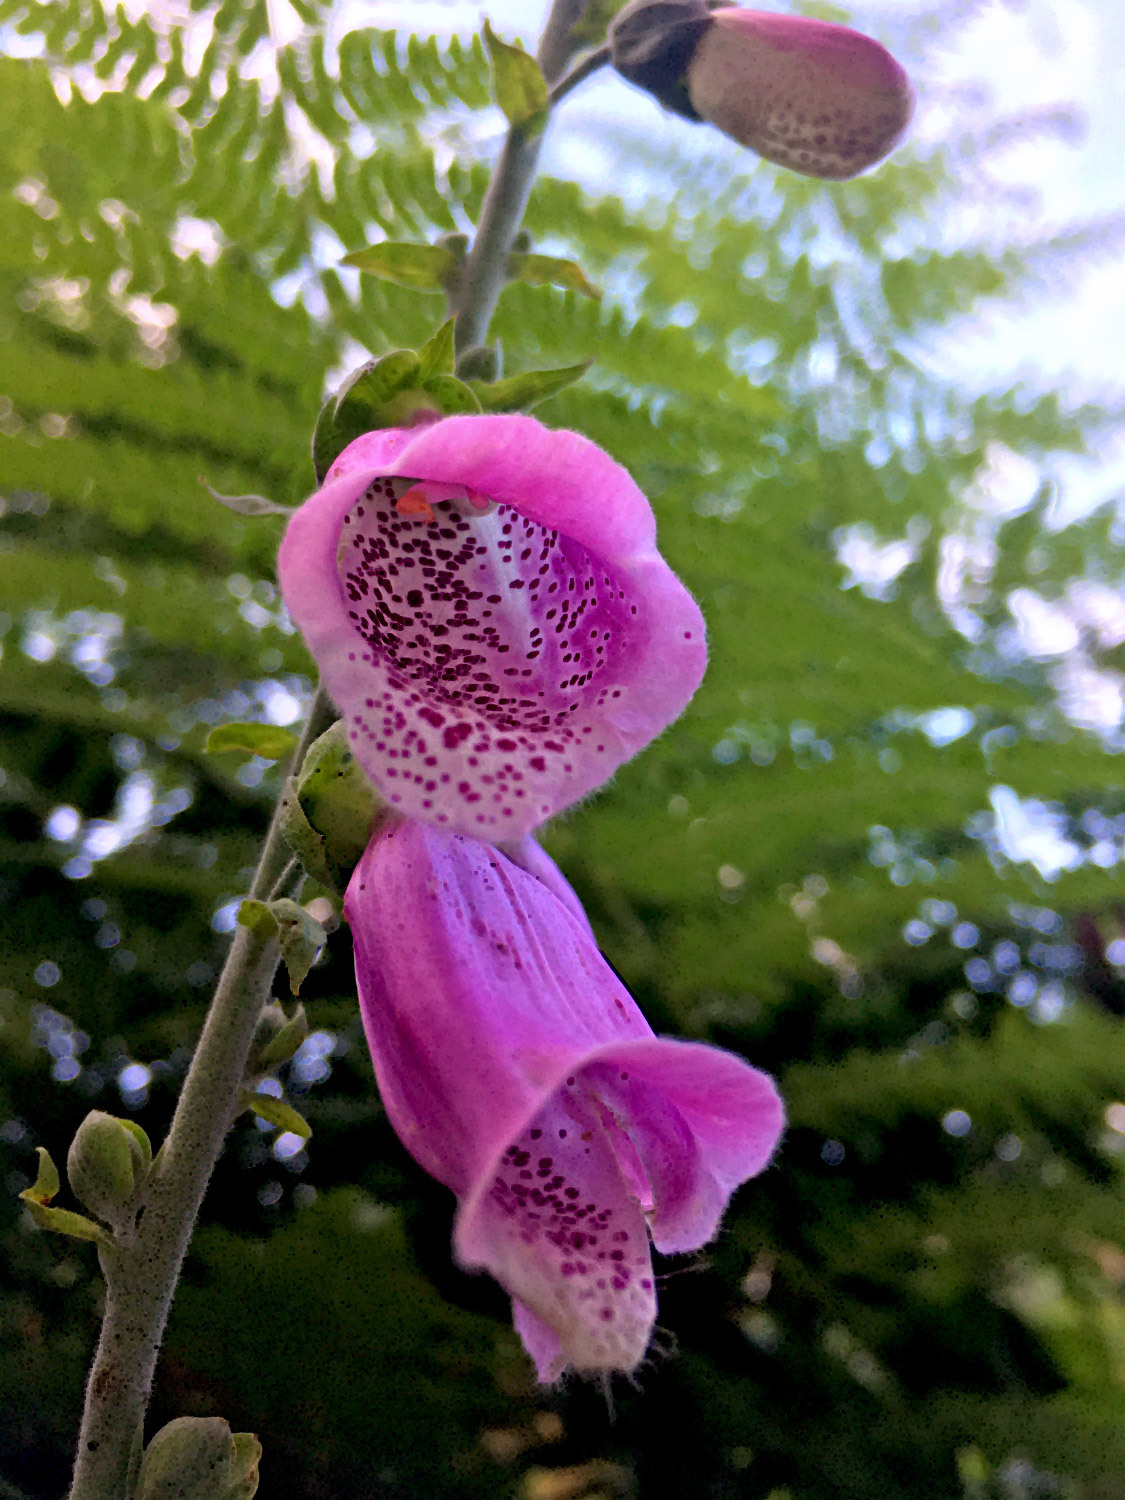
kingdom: Plantae
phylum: Tracheophyta
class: Magnoliopsida
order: Lamiales
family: Plantaginaceae
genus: Digitalis
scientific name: Digitalis purpurea
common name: Foxglove
